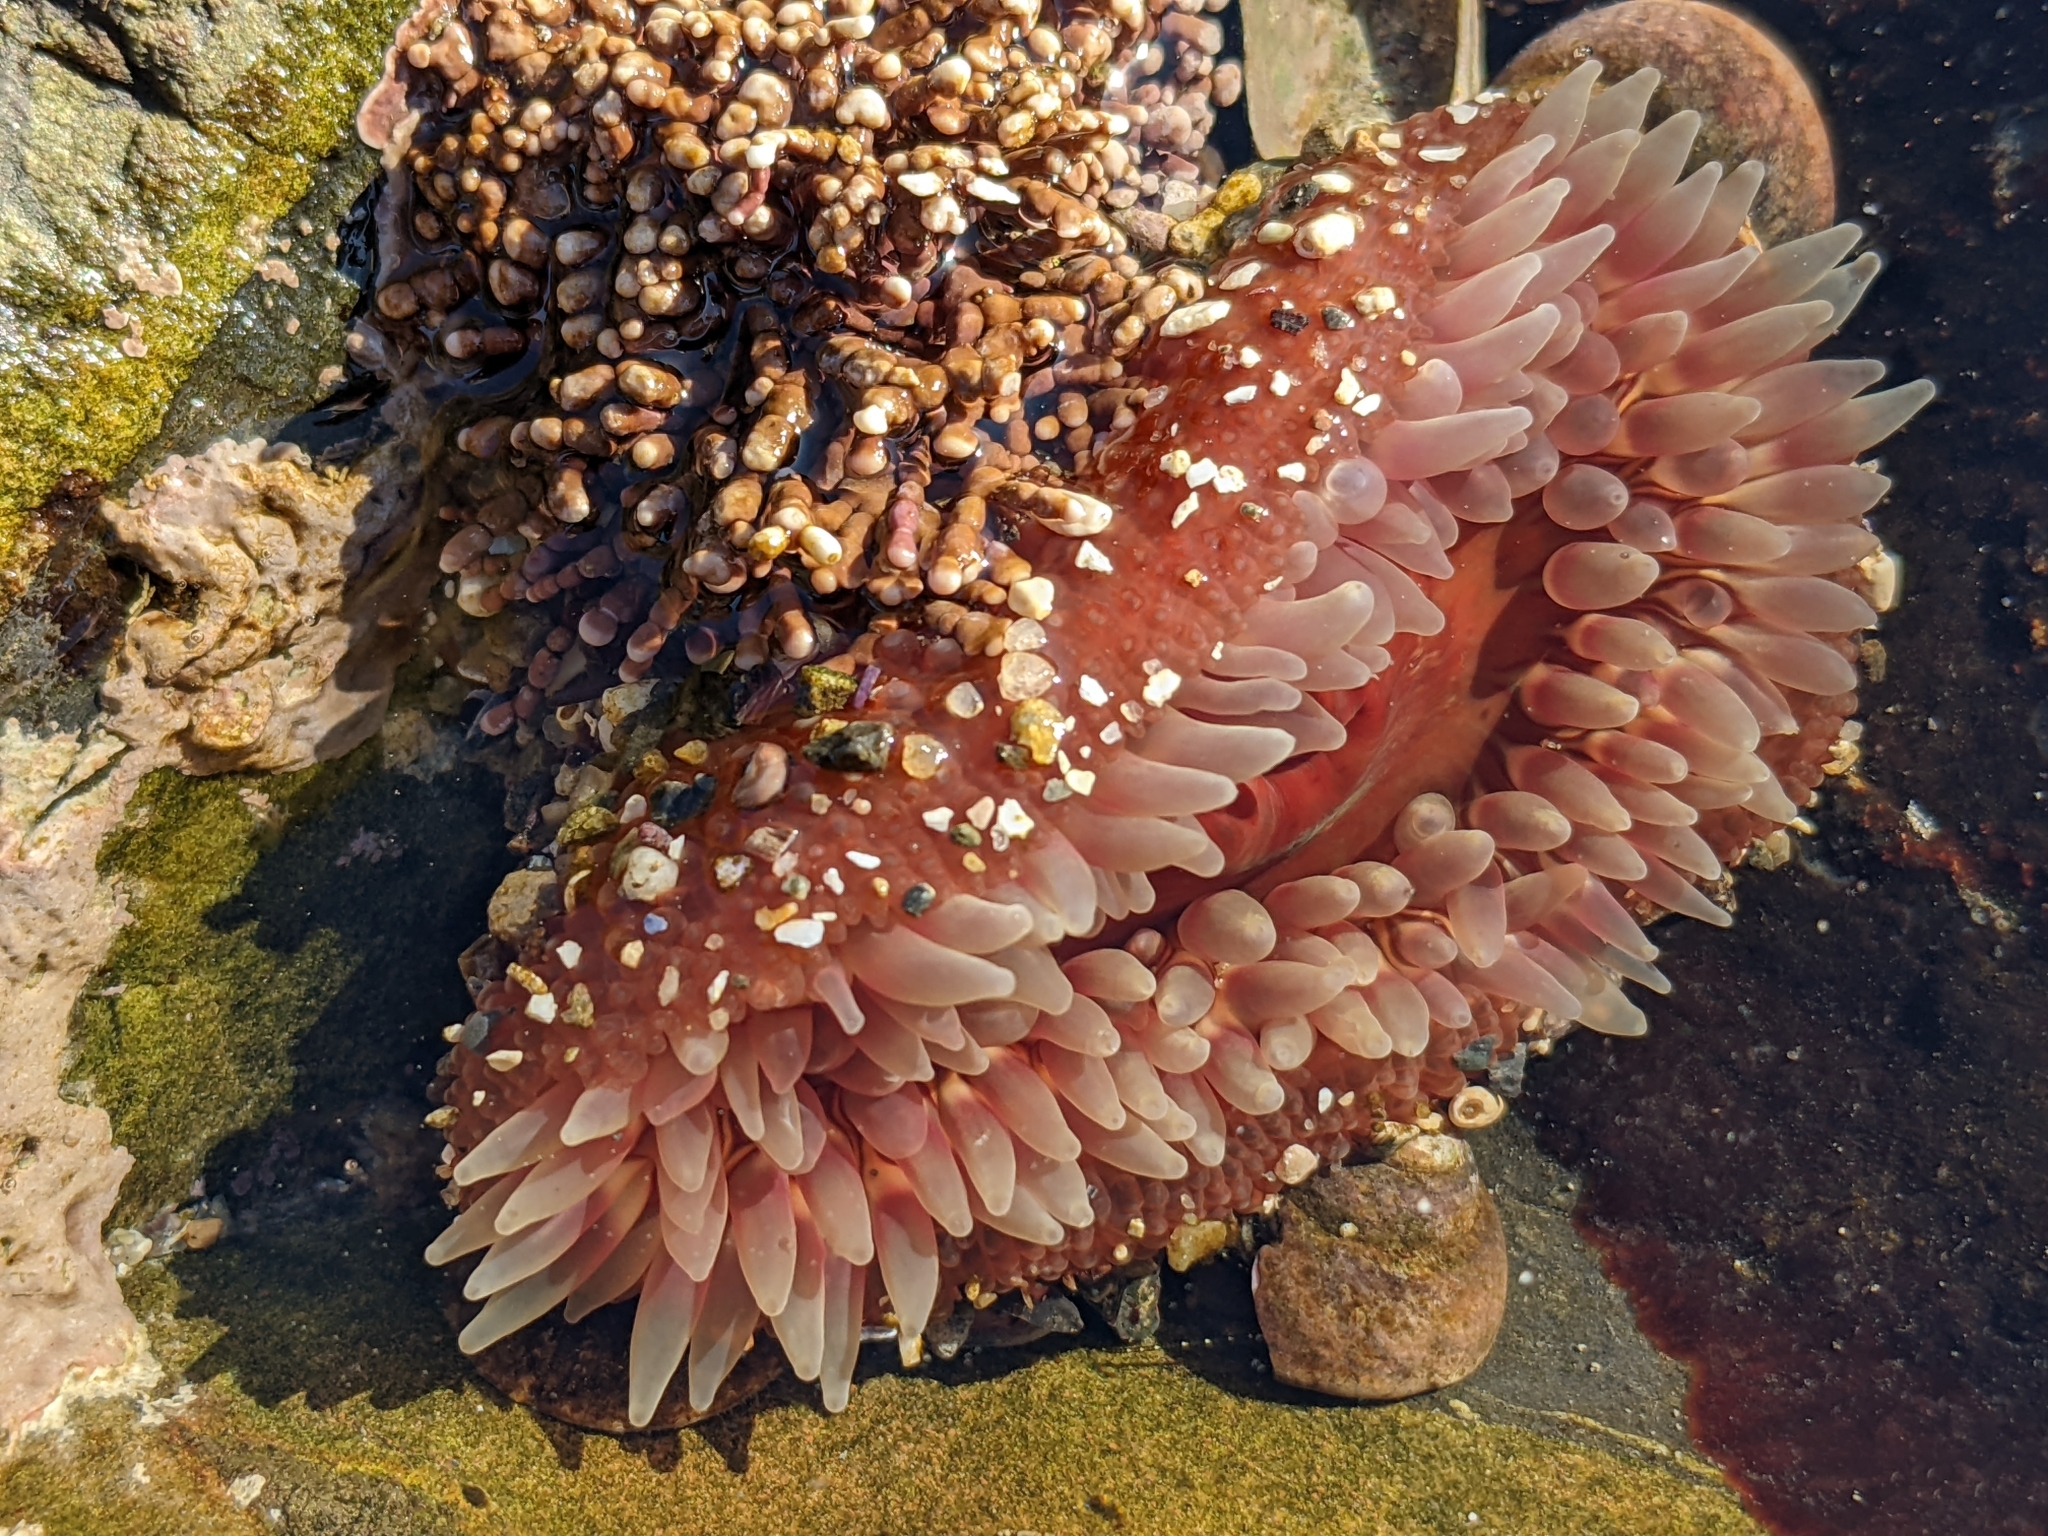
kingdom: Animalia
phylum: Cnidaria
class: Anthozoa
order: Actiniaria
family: Actiniidae
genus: Urticina
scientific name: Urticina clandestina
